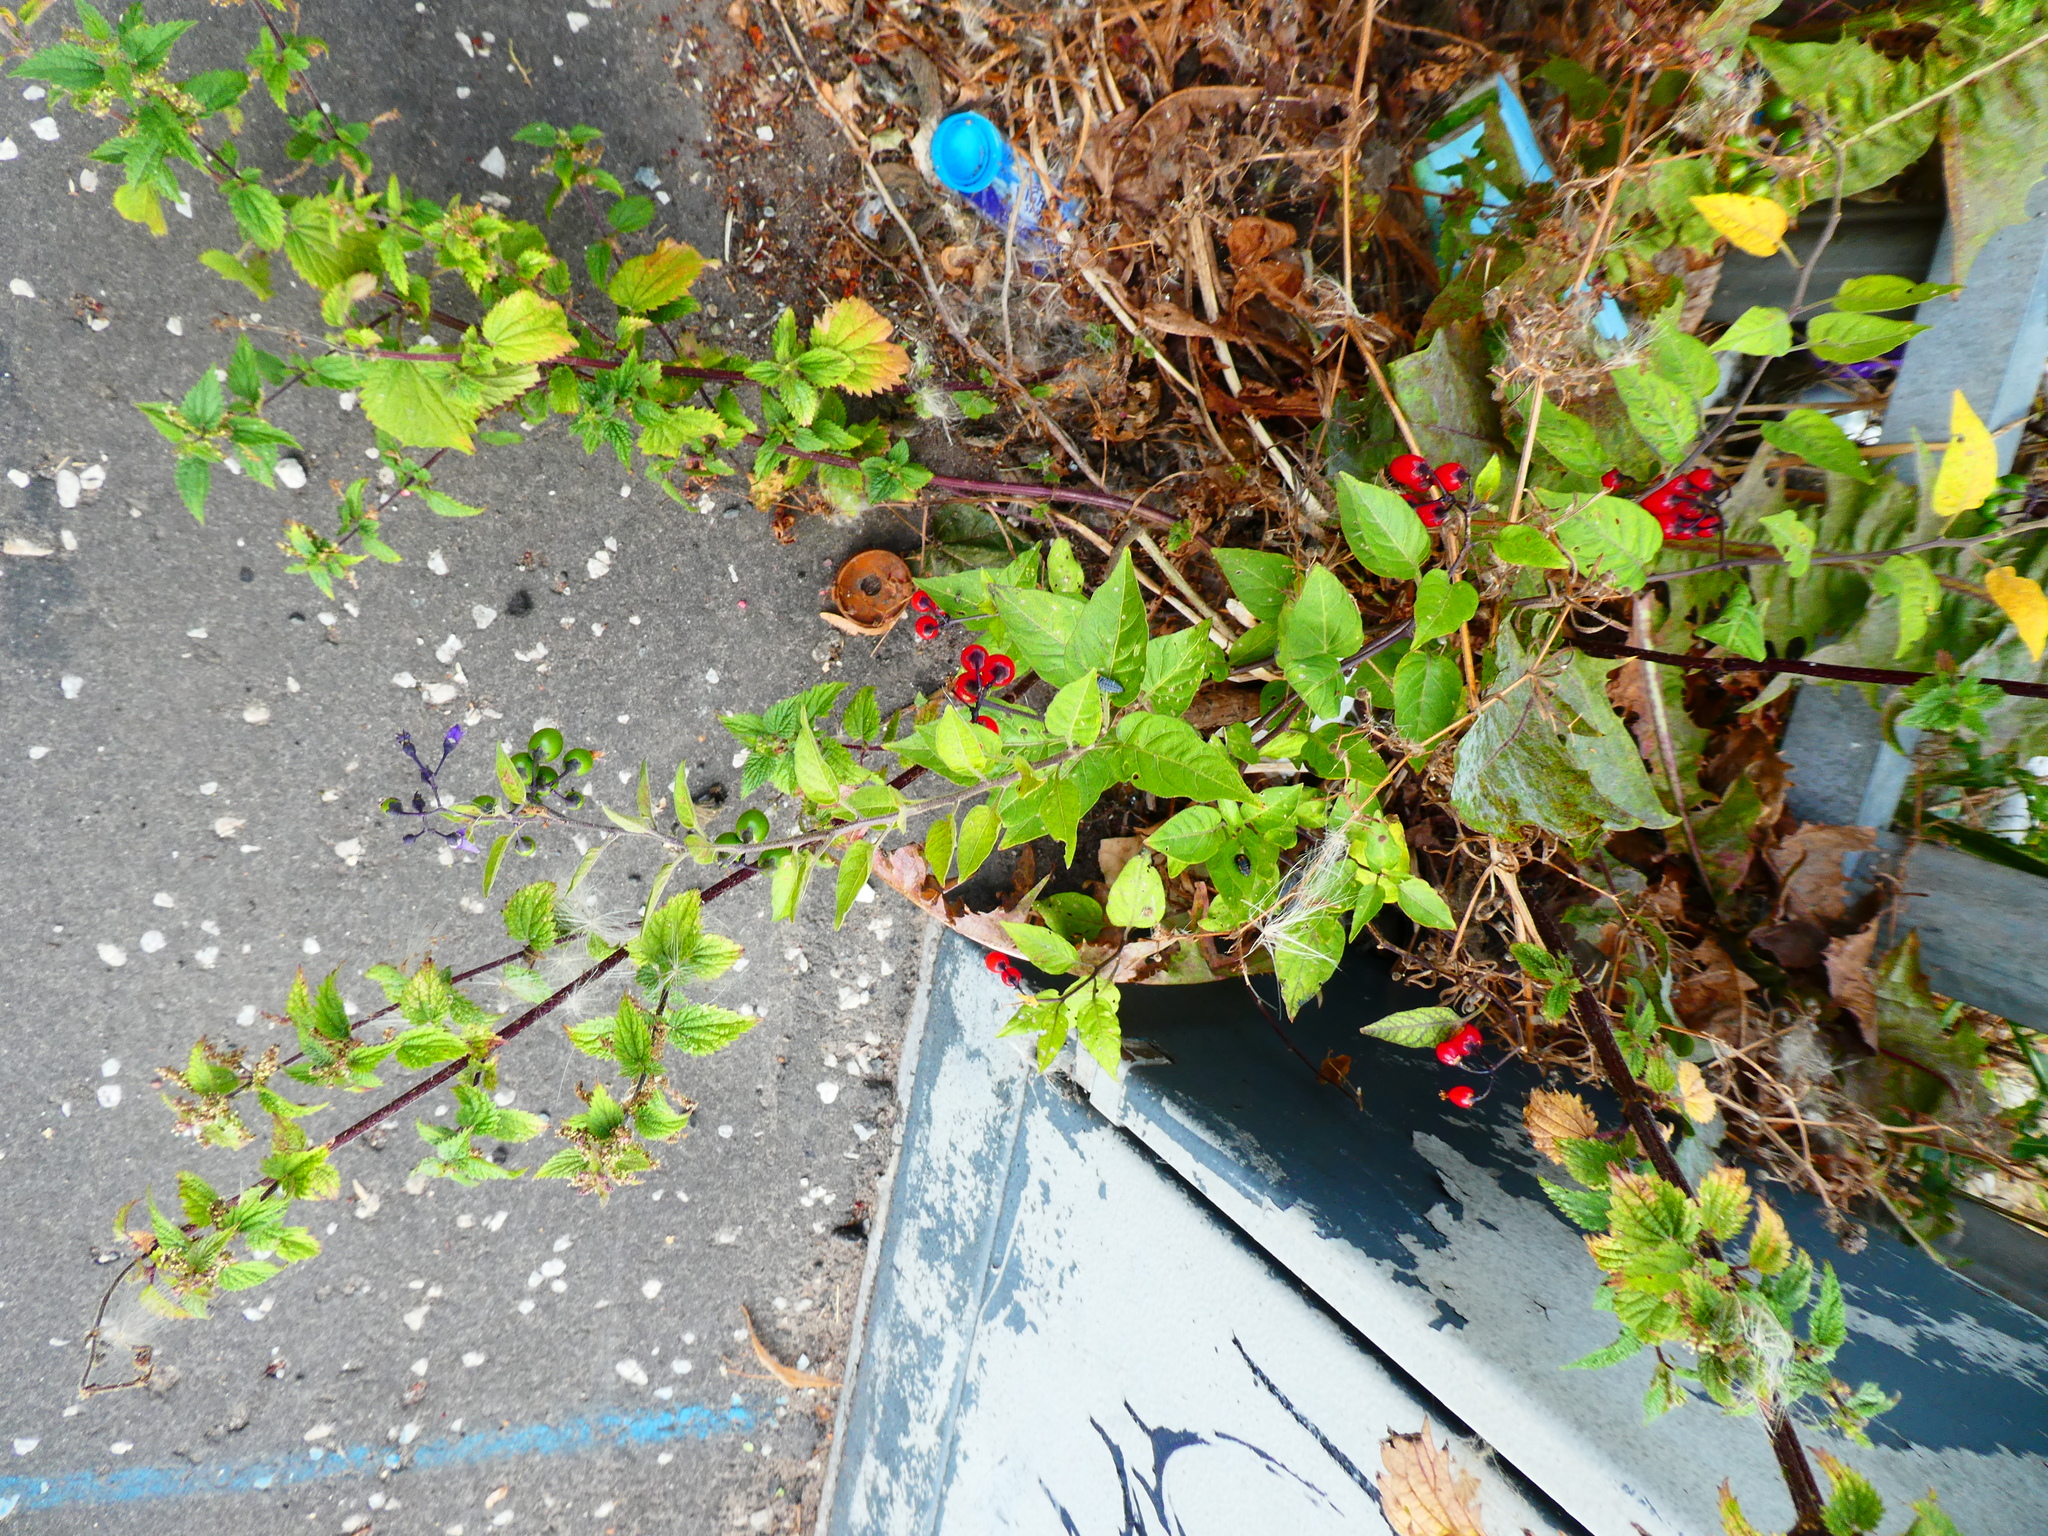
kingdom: Plantae
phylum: Tracheophyta
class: Magnoliopsida
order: Solanales
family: Solanaceae
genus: Solanum
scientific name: Solanum dulcamara
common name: Climbing nightshade
